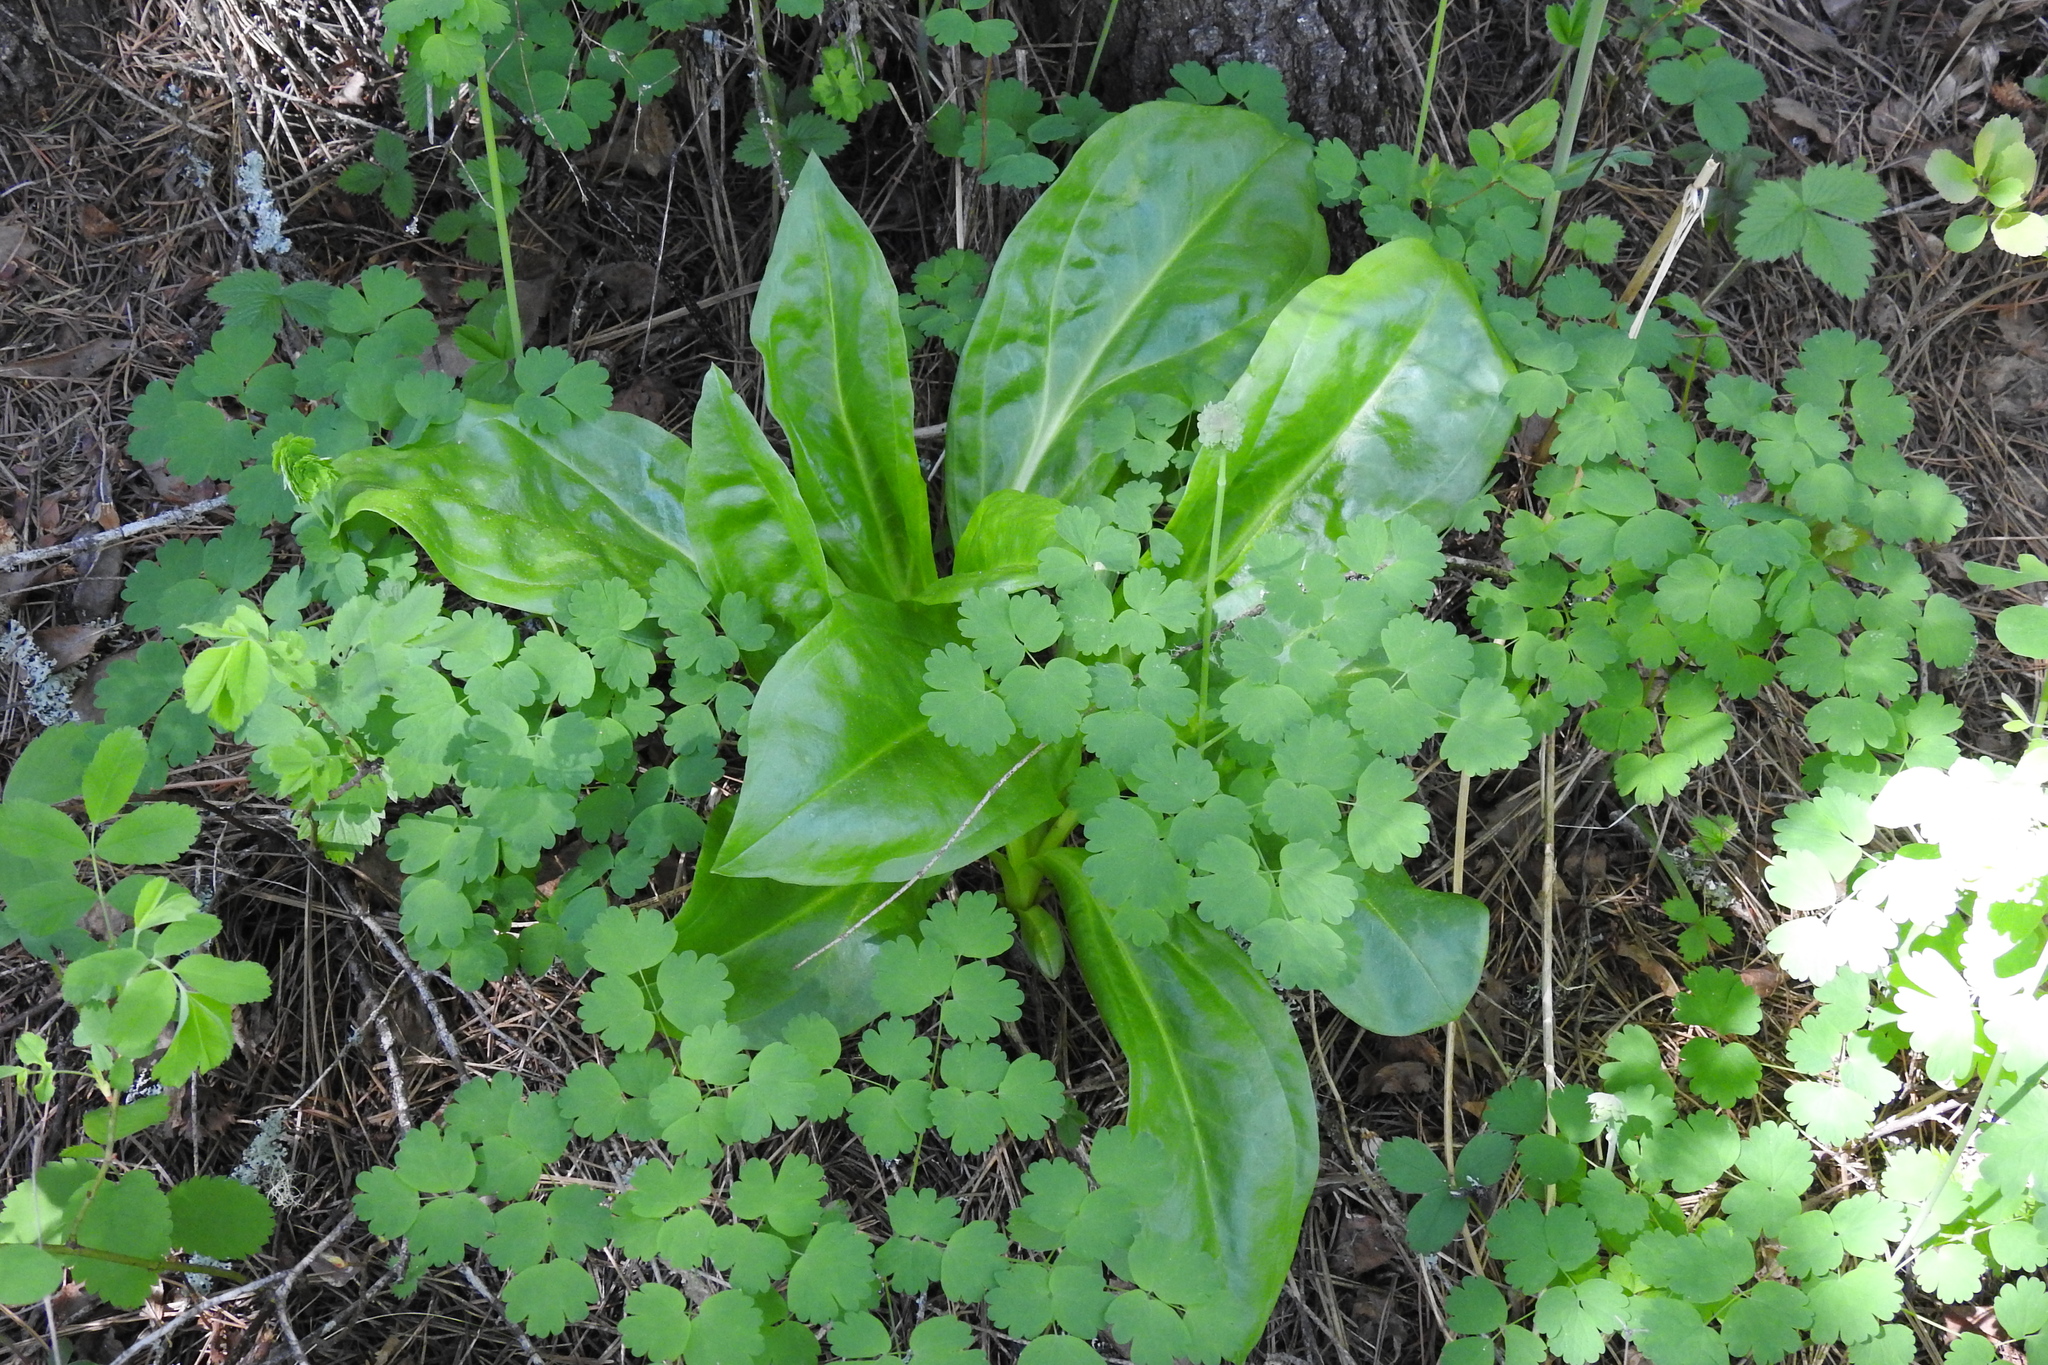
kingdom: Plantae
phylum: Tracheophyta
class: Magnoliopsida
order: Gentianales
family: Gentianaceae
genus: Frasera
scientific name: Frasera fastigiata
